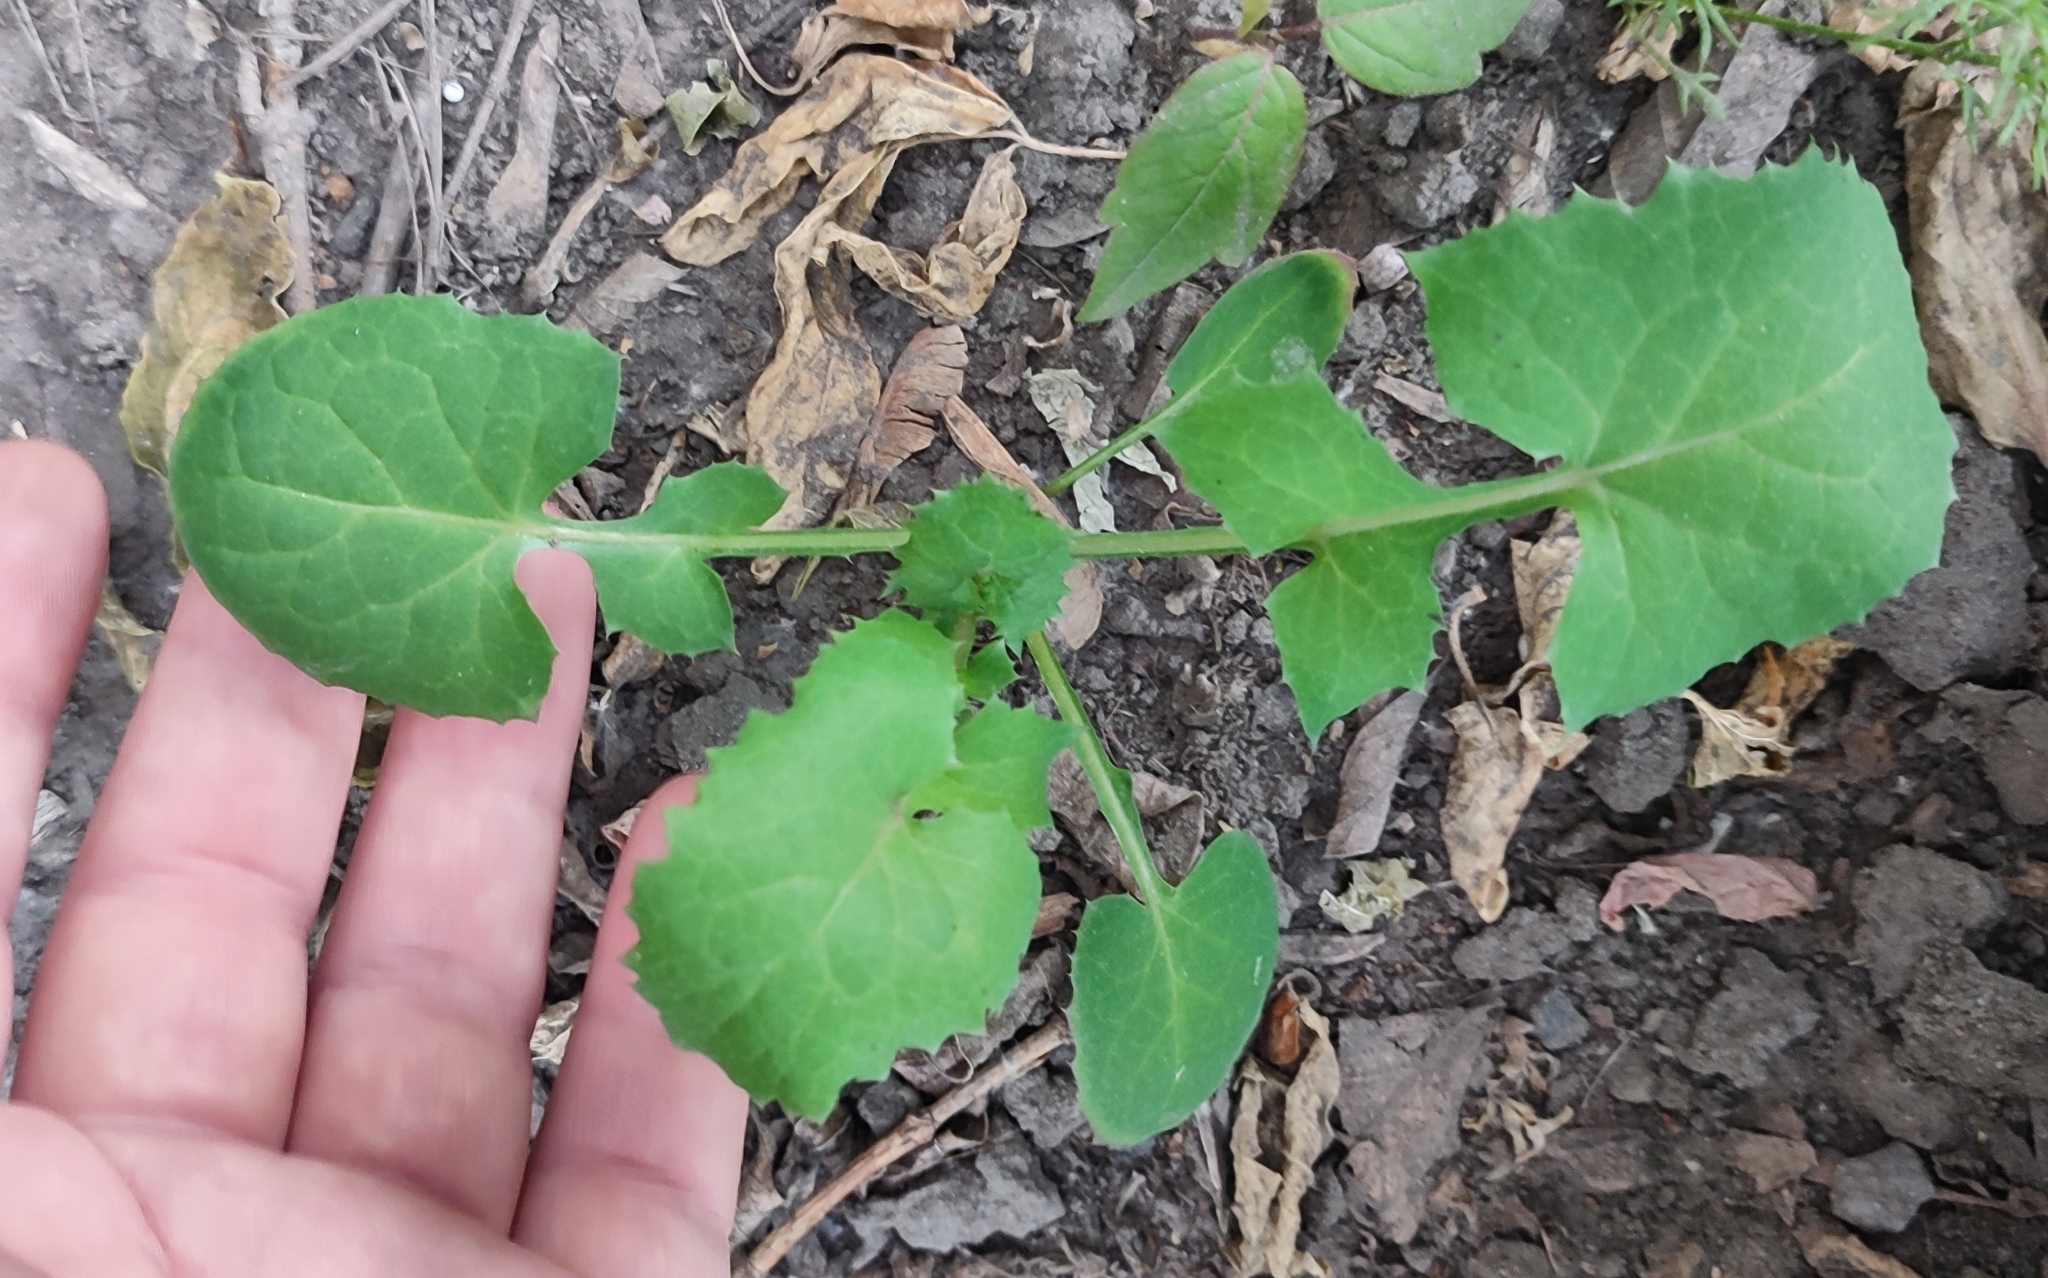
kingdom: Plantae
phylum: Tracheophyta
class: Magnoliopsida
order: Asterales
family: Asteraceae
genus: Sonchus
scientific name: Sonchus oleraceus
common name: Common sowthistle
